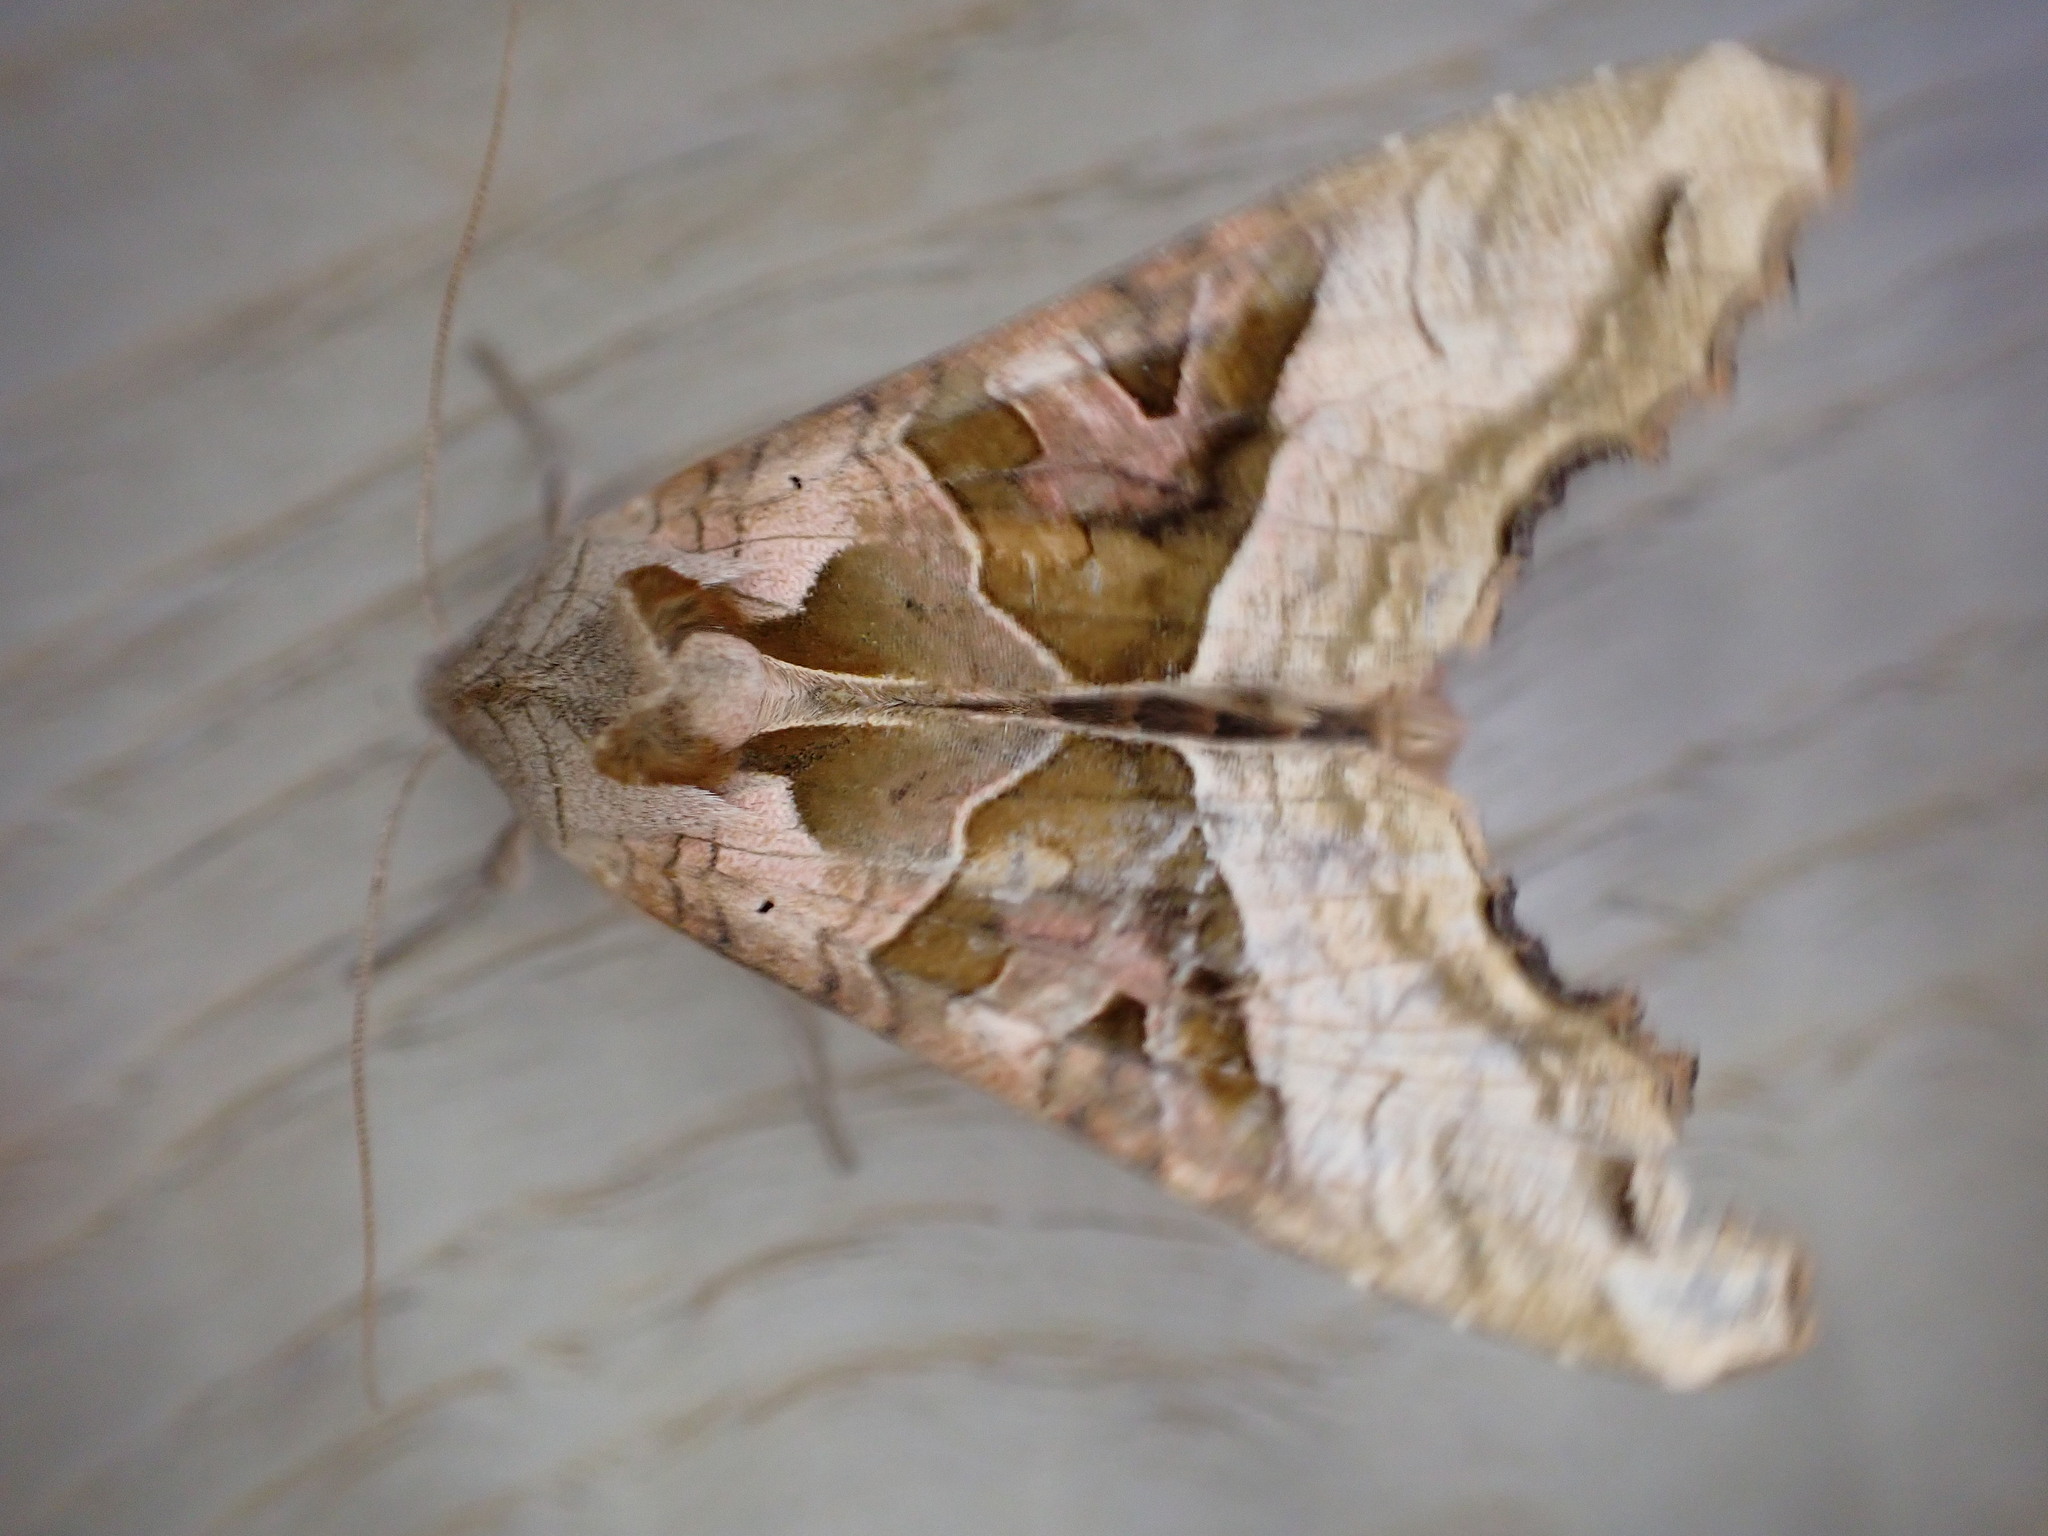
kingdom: Animalia
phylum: Arthropoda
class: Insecta
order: Lepidoptera
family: Noctuidae
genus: Phlogophora
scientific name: Phlogophora meticulosa
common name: Angle shades
